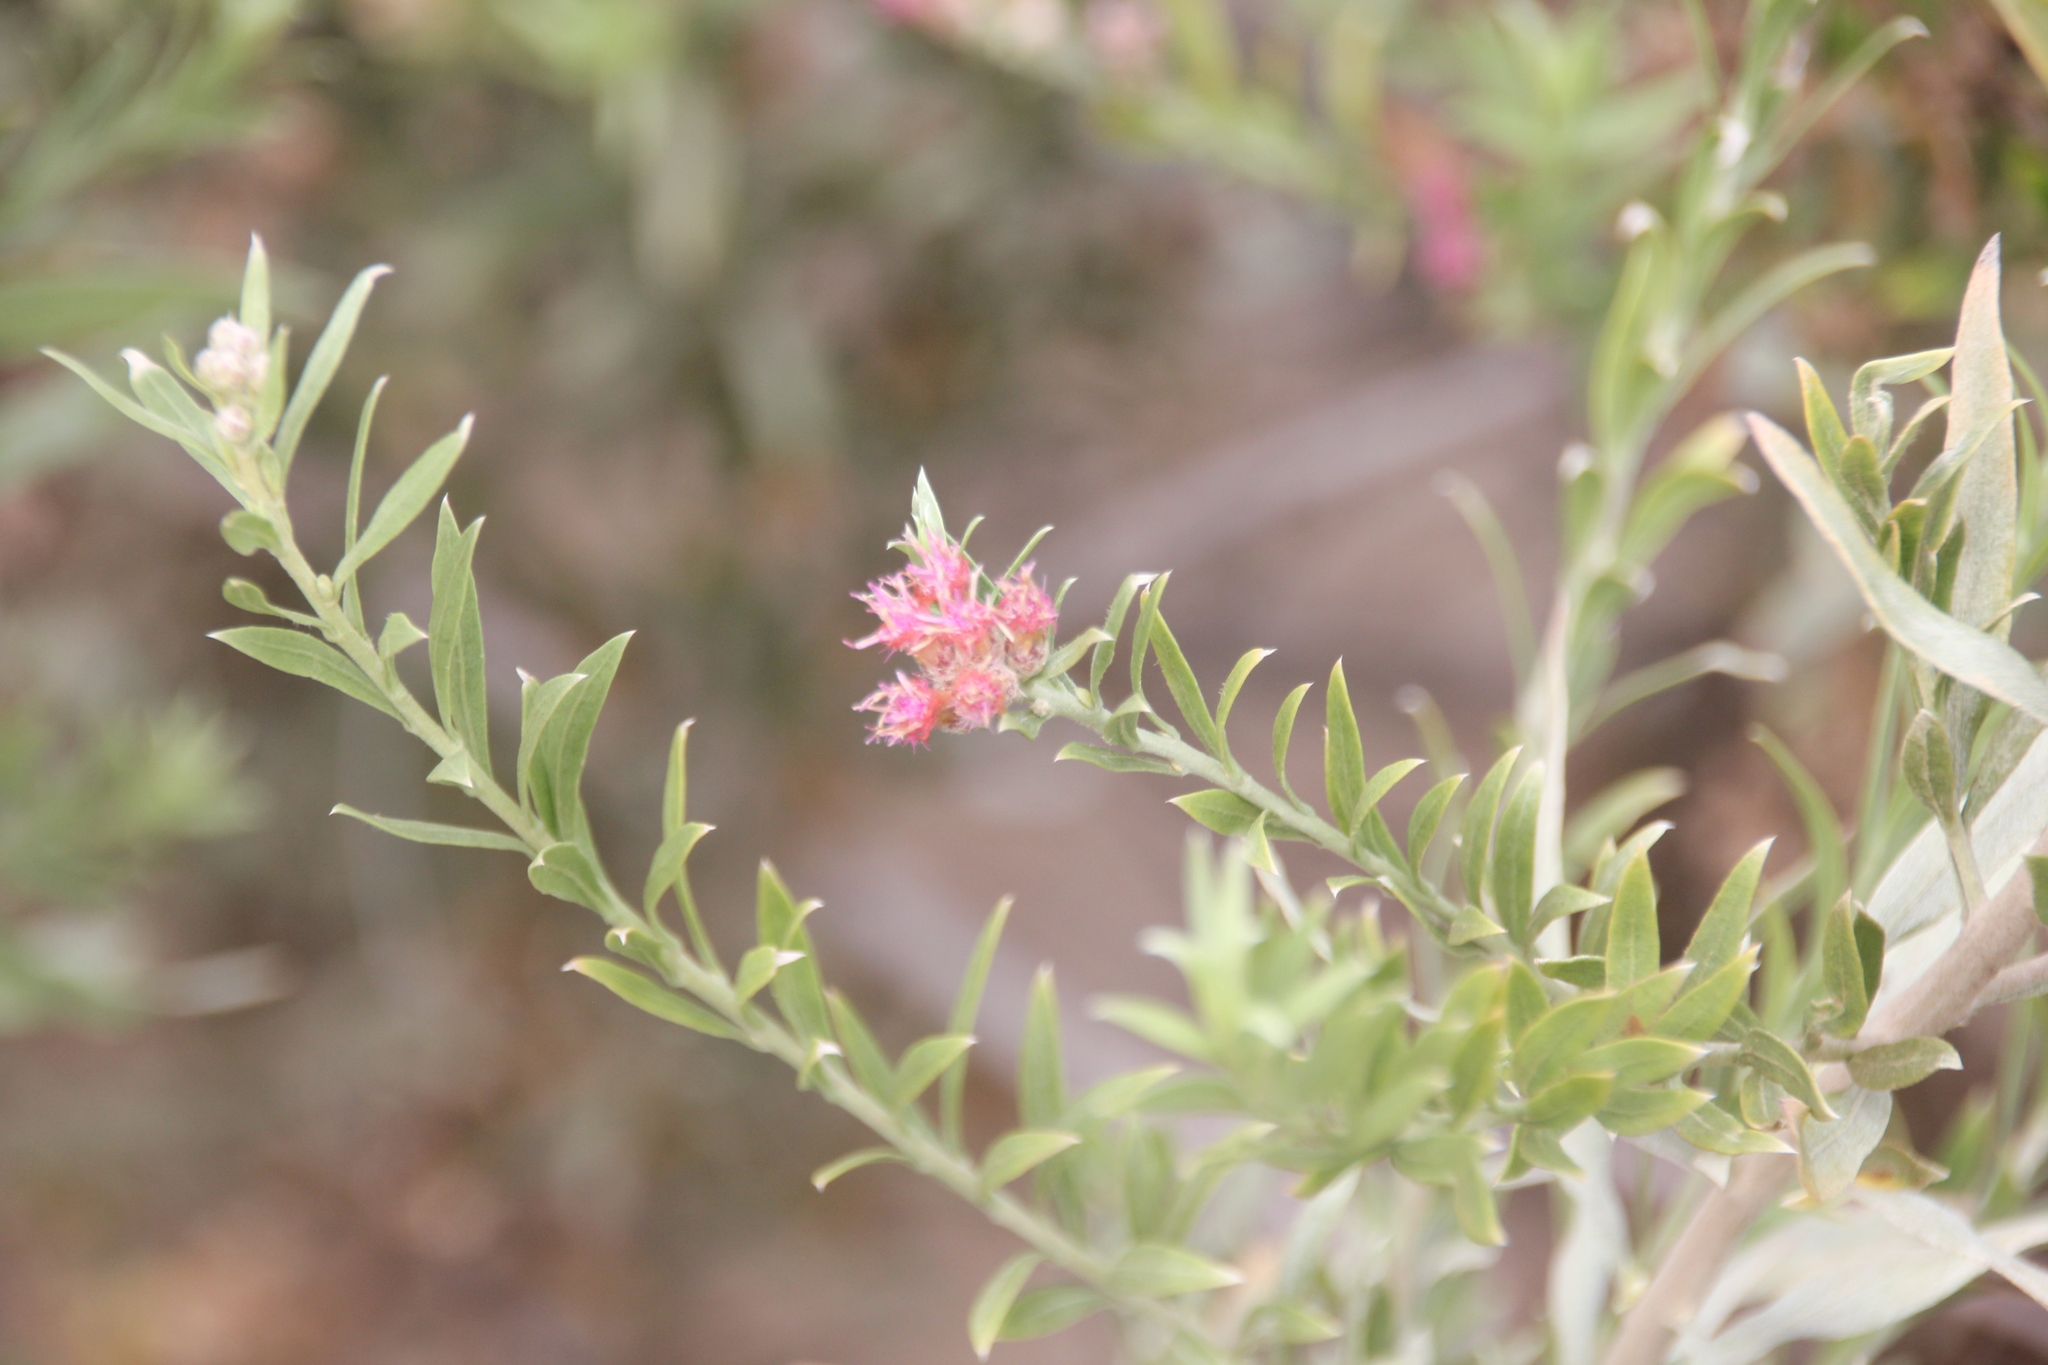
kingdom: Plantae
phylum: Tracheophyta
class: Magnoliopsida
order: Asterales
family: Asteraceae
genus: Pluchea
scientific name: Pluchea sericea
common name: Arrow-weed
